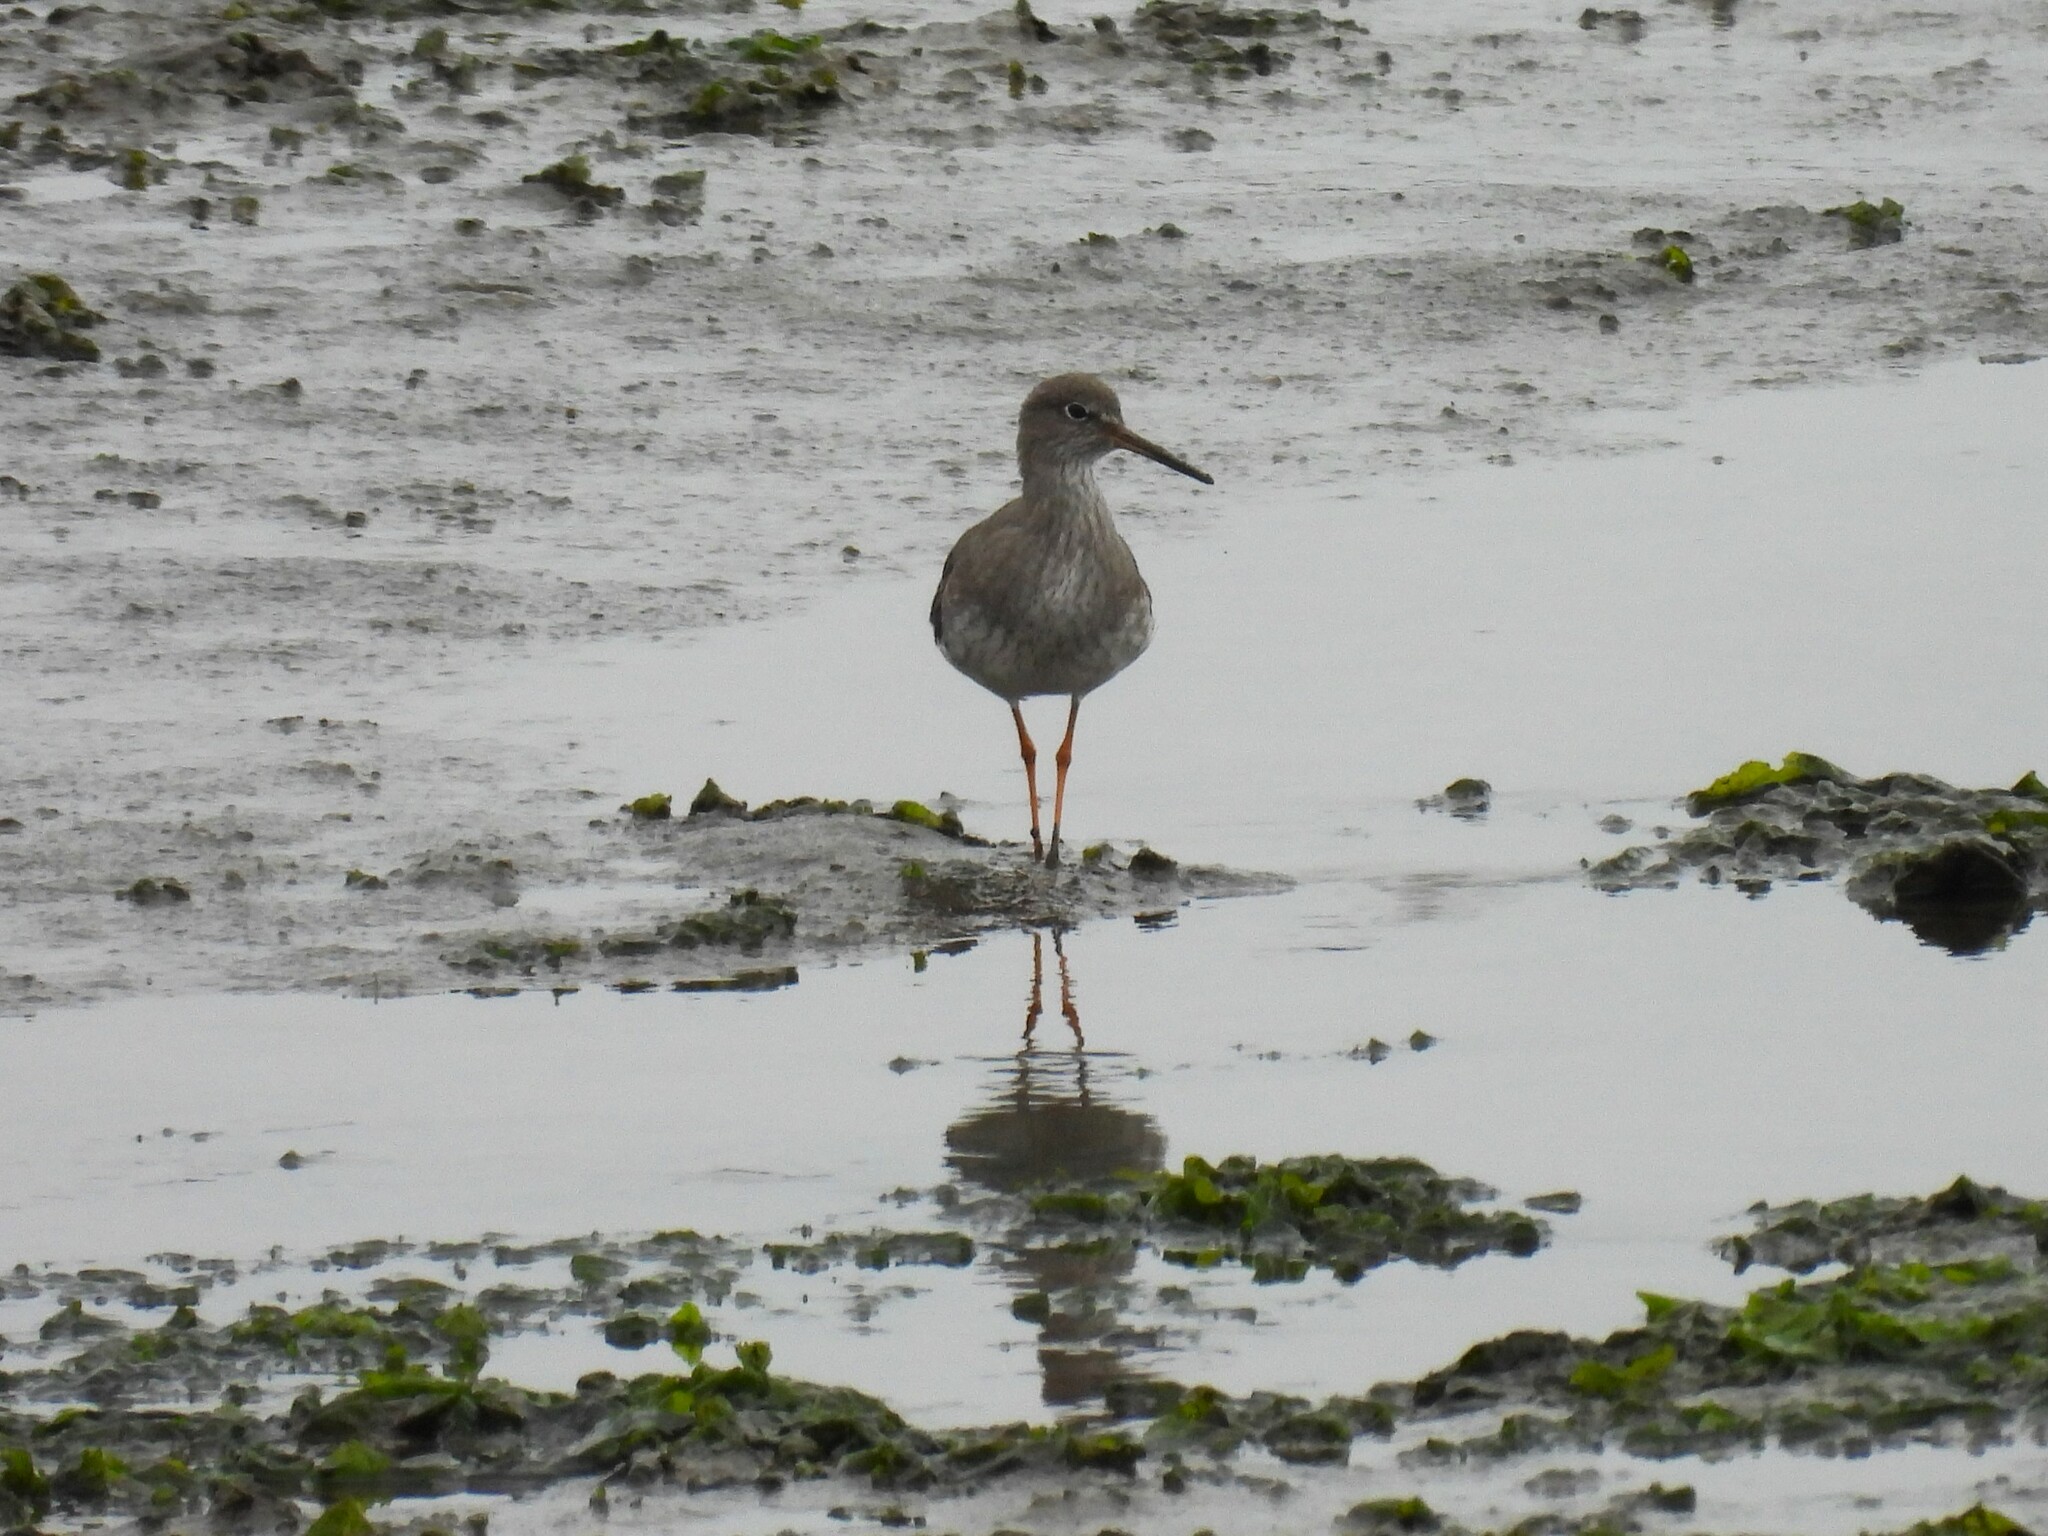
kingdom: Animalia
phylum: Chordata
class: Aves
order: Charadriiformes
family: Scolopacidae
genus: Tringa
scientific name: Tringa totanus
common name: Common redshank
